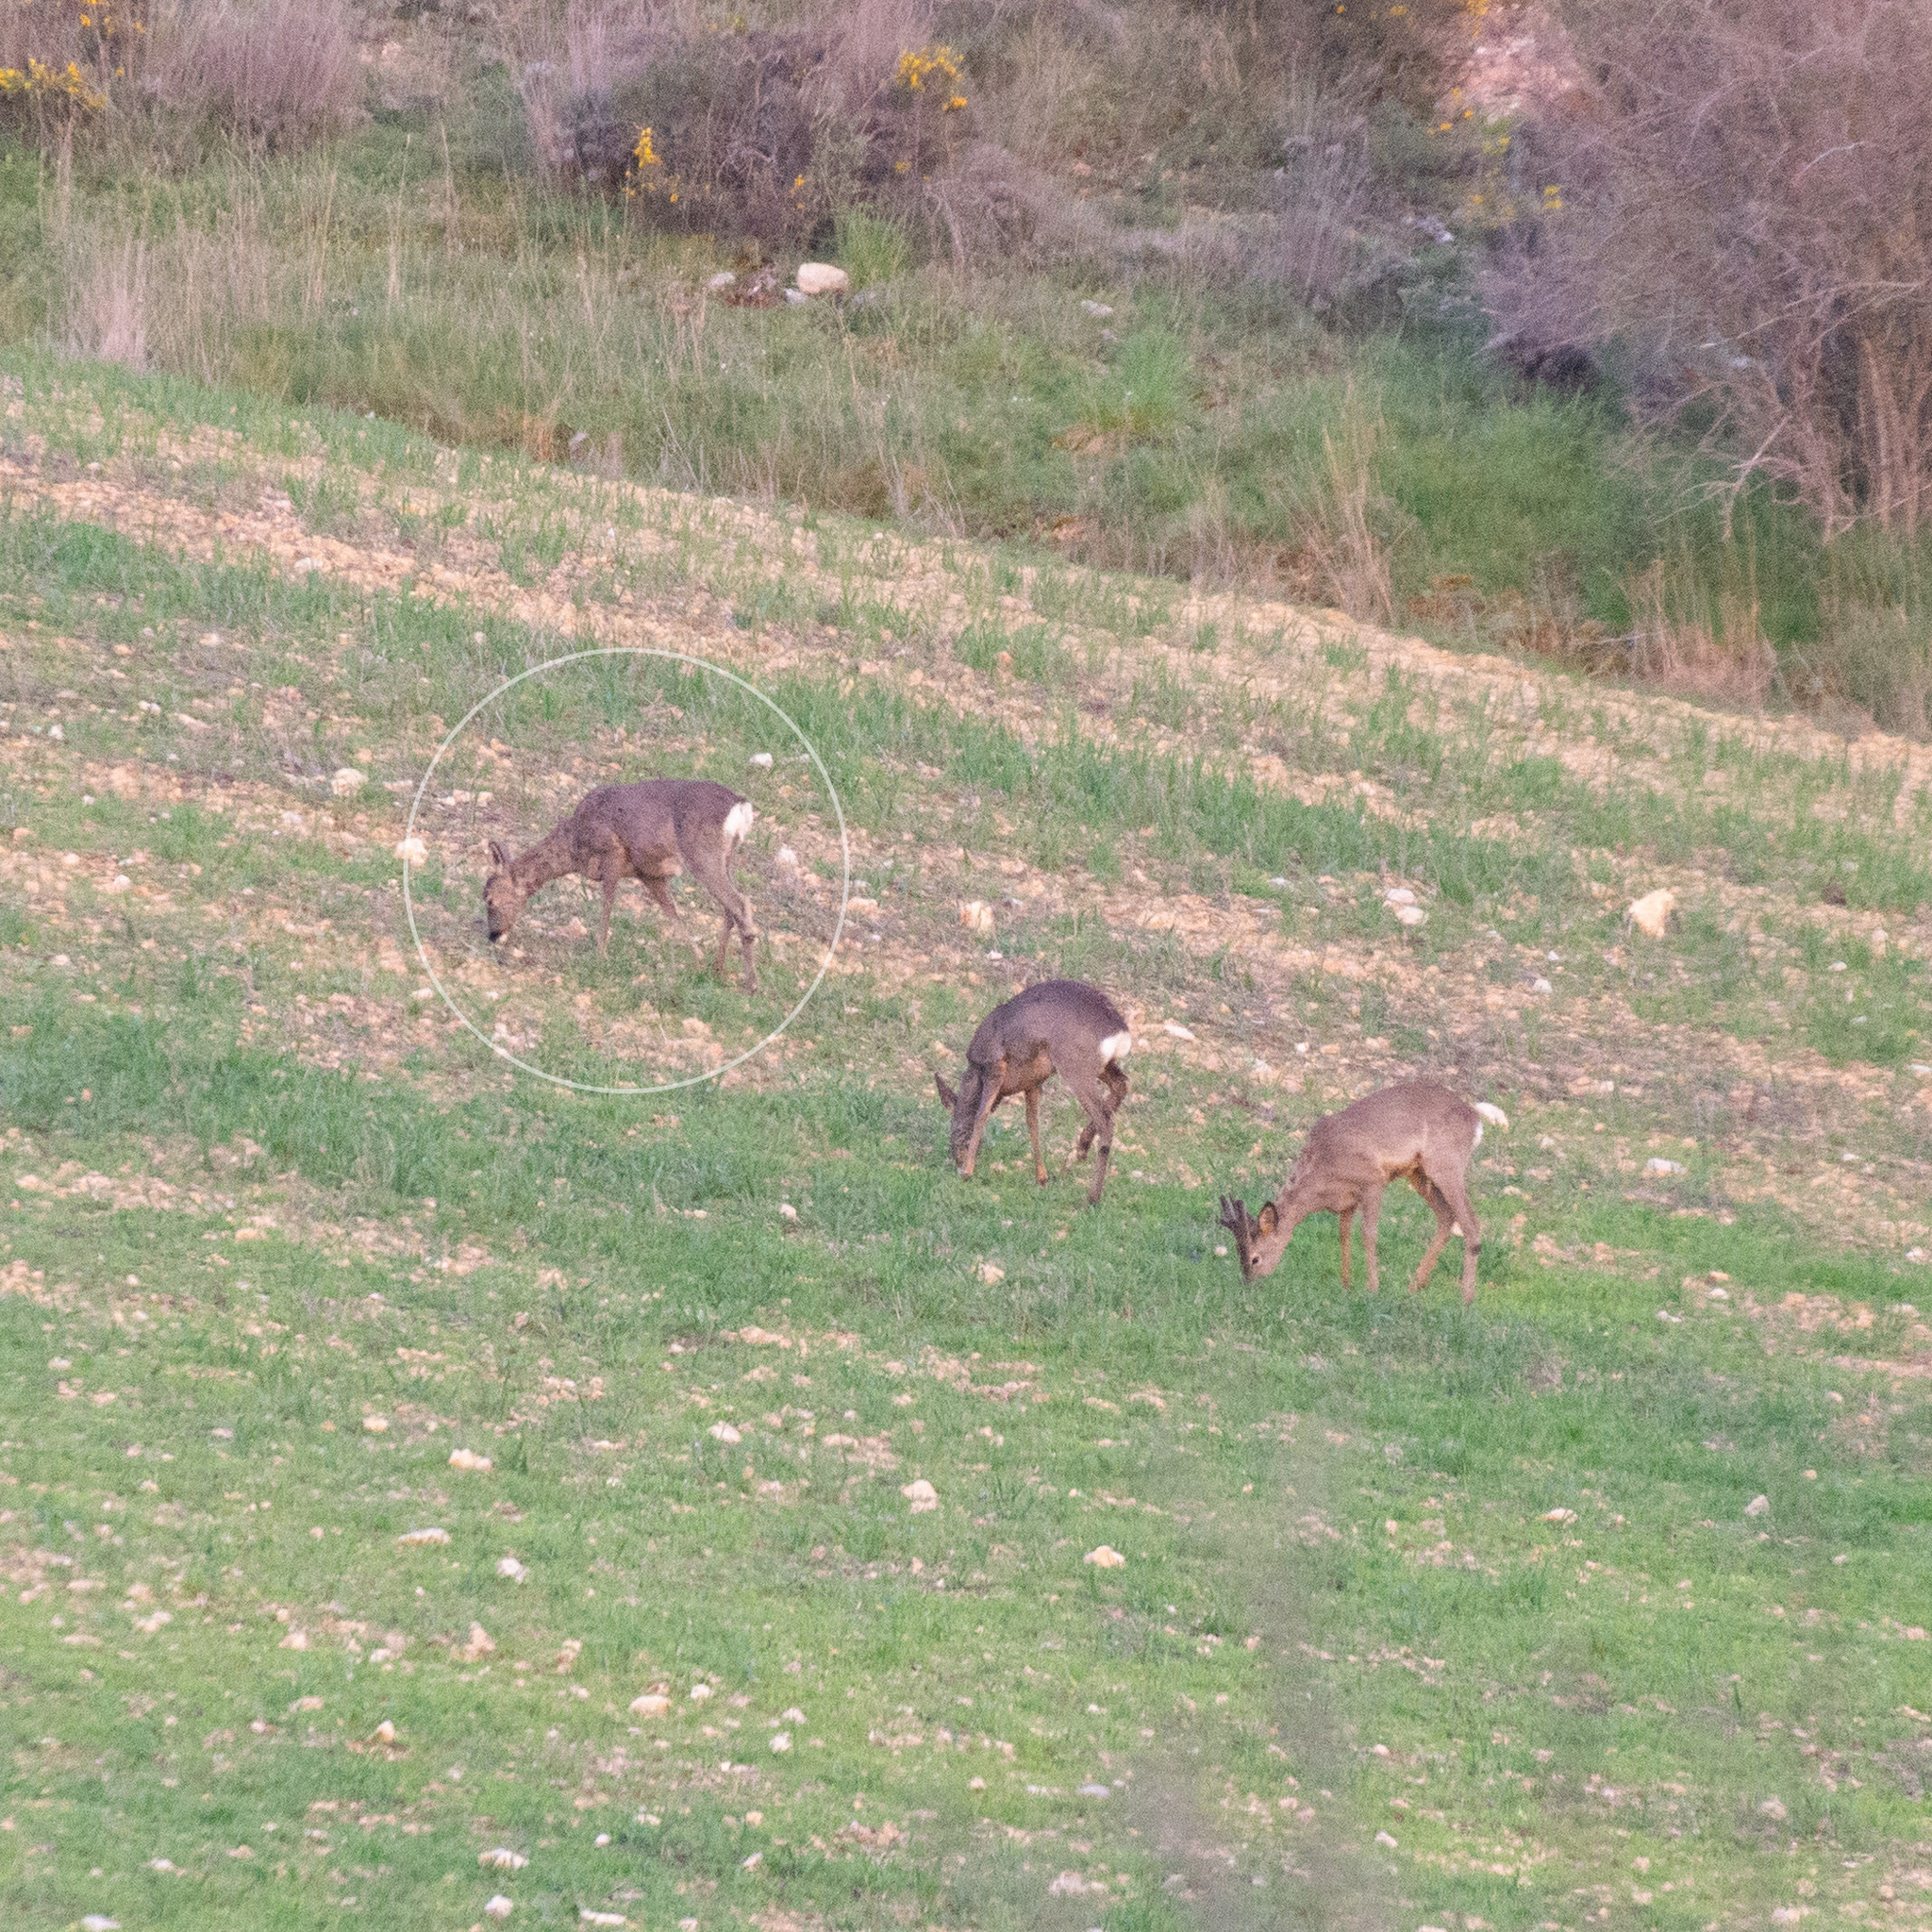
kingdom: Animalia
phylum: Chordata
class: Mammalia
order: Artiodactyla
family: Cervidae
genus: Capreolus
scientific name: Capreolus capreolus
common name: Western roe deer
